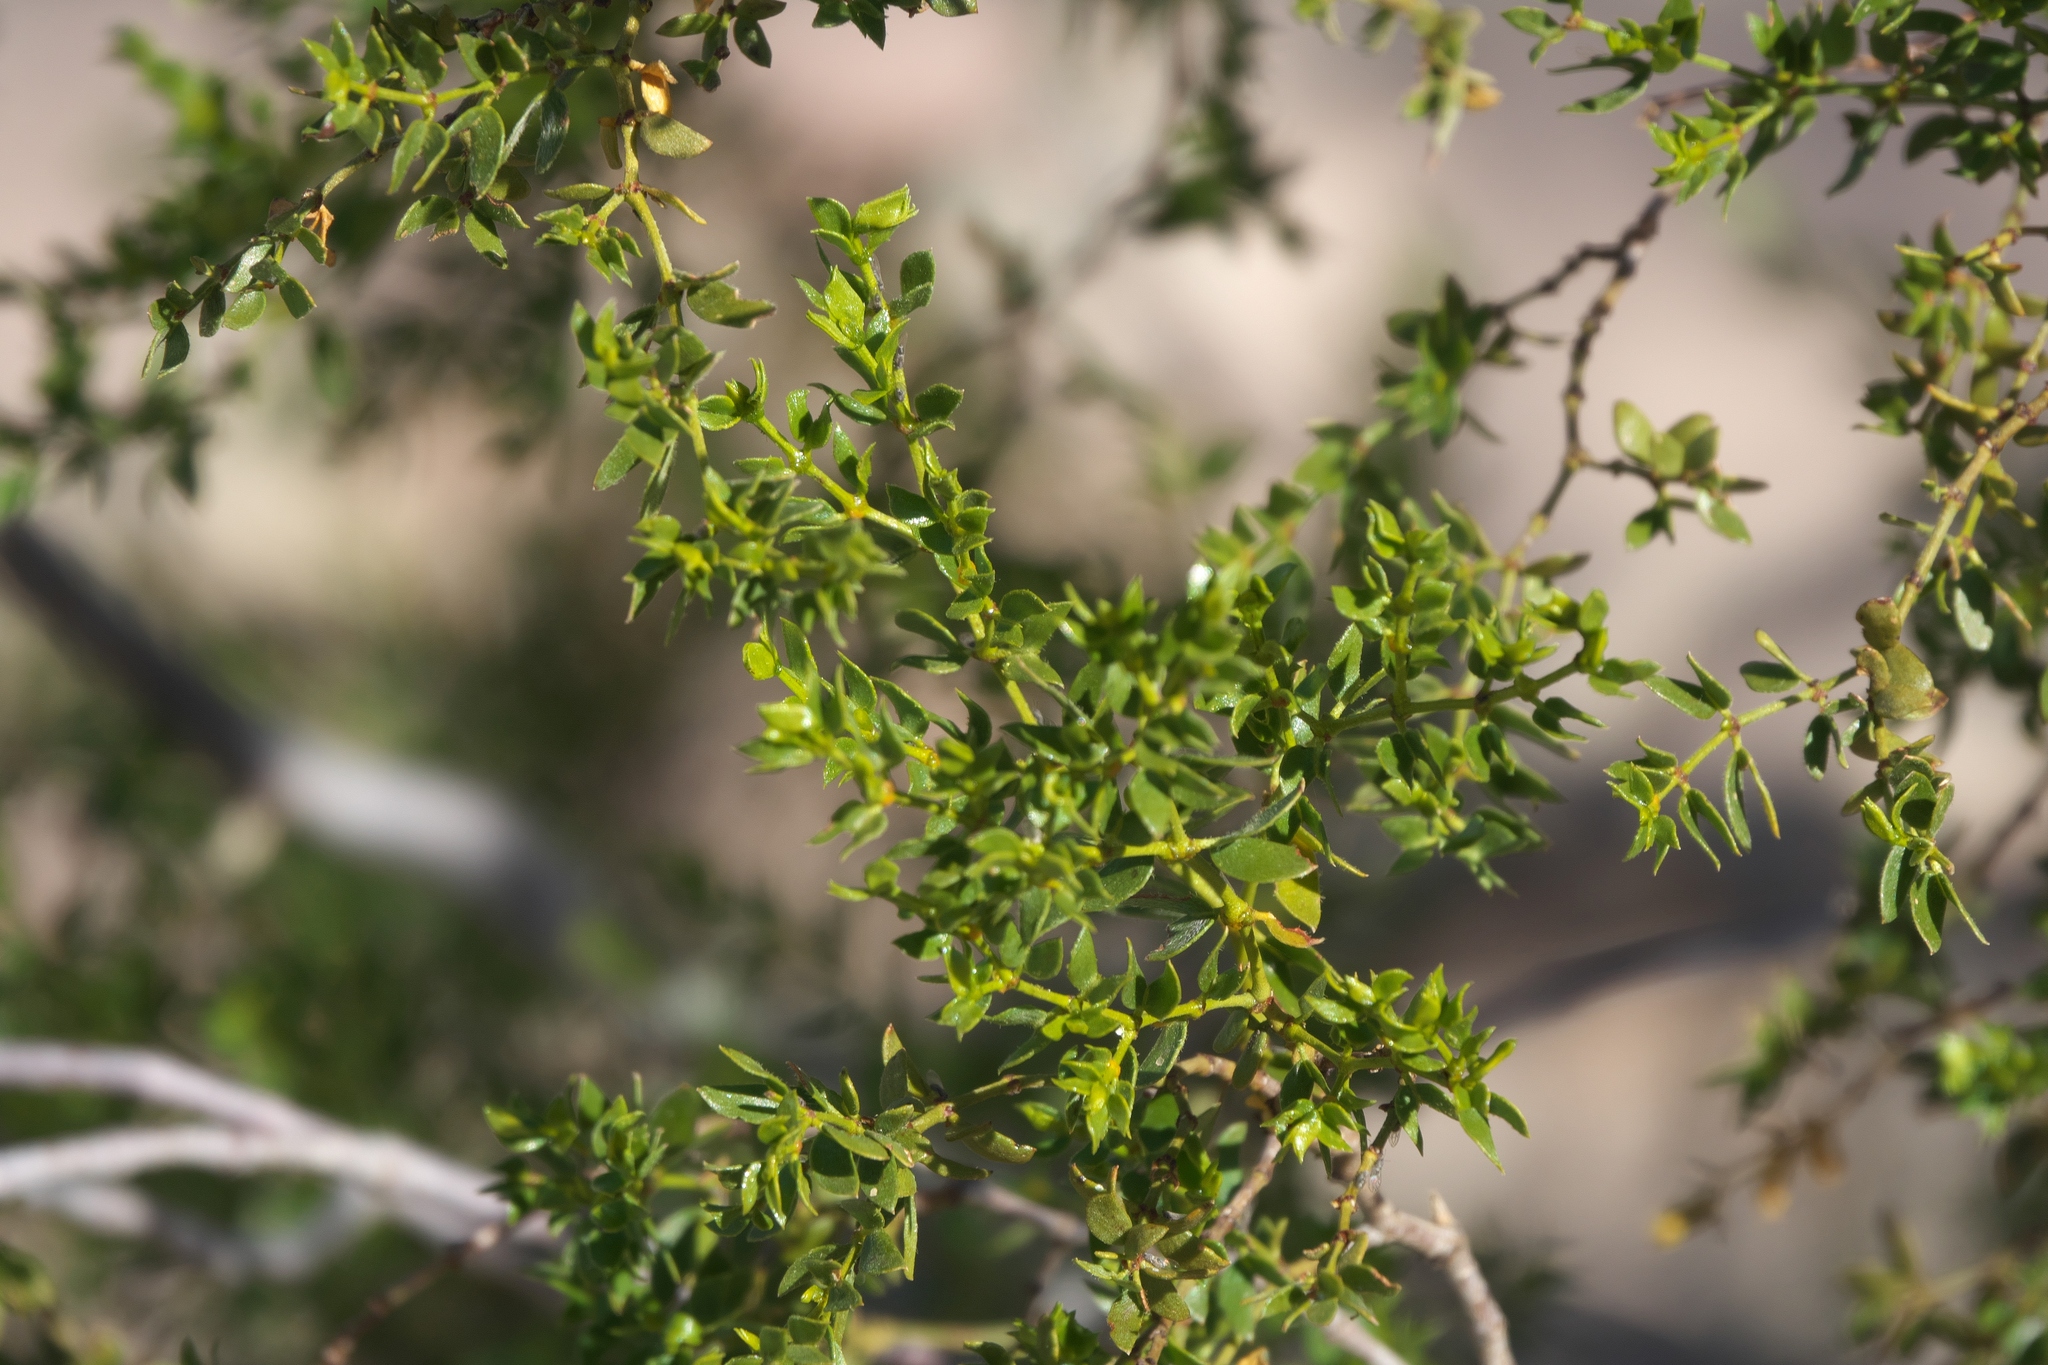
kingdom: Plantae
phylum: Tracheophyta
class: Magnoliopsida
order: Zygophyllales
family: Zygophyllaceae
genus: Larrea
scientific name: Larrea tridentata
